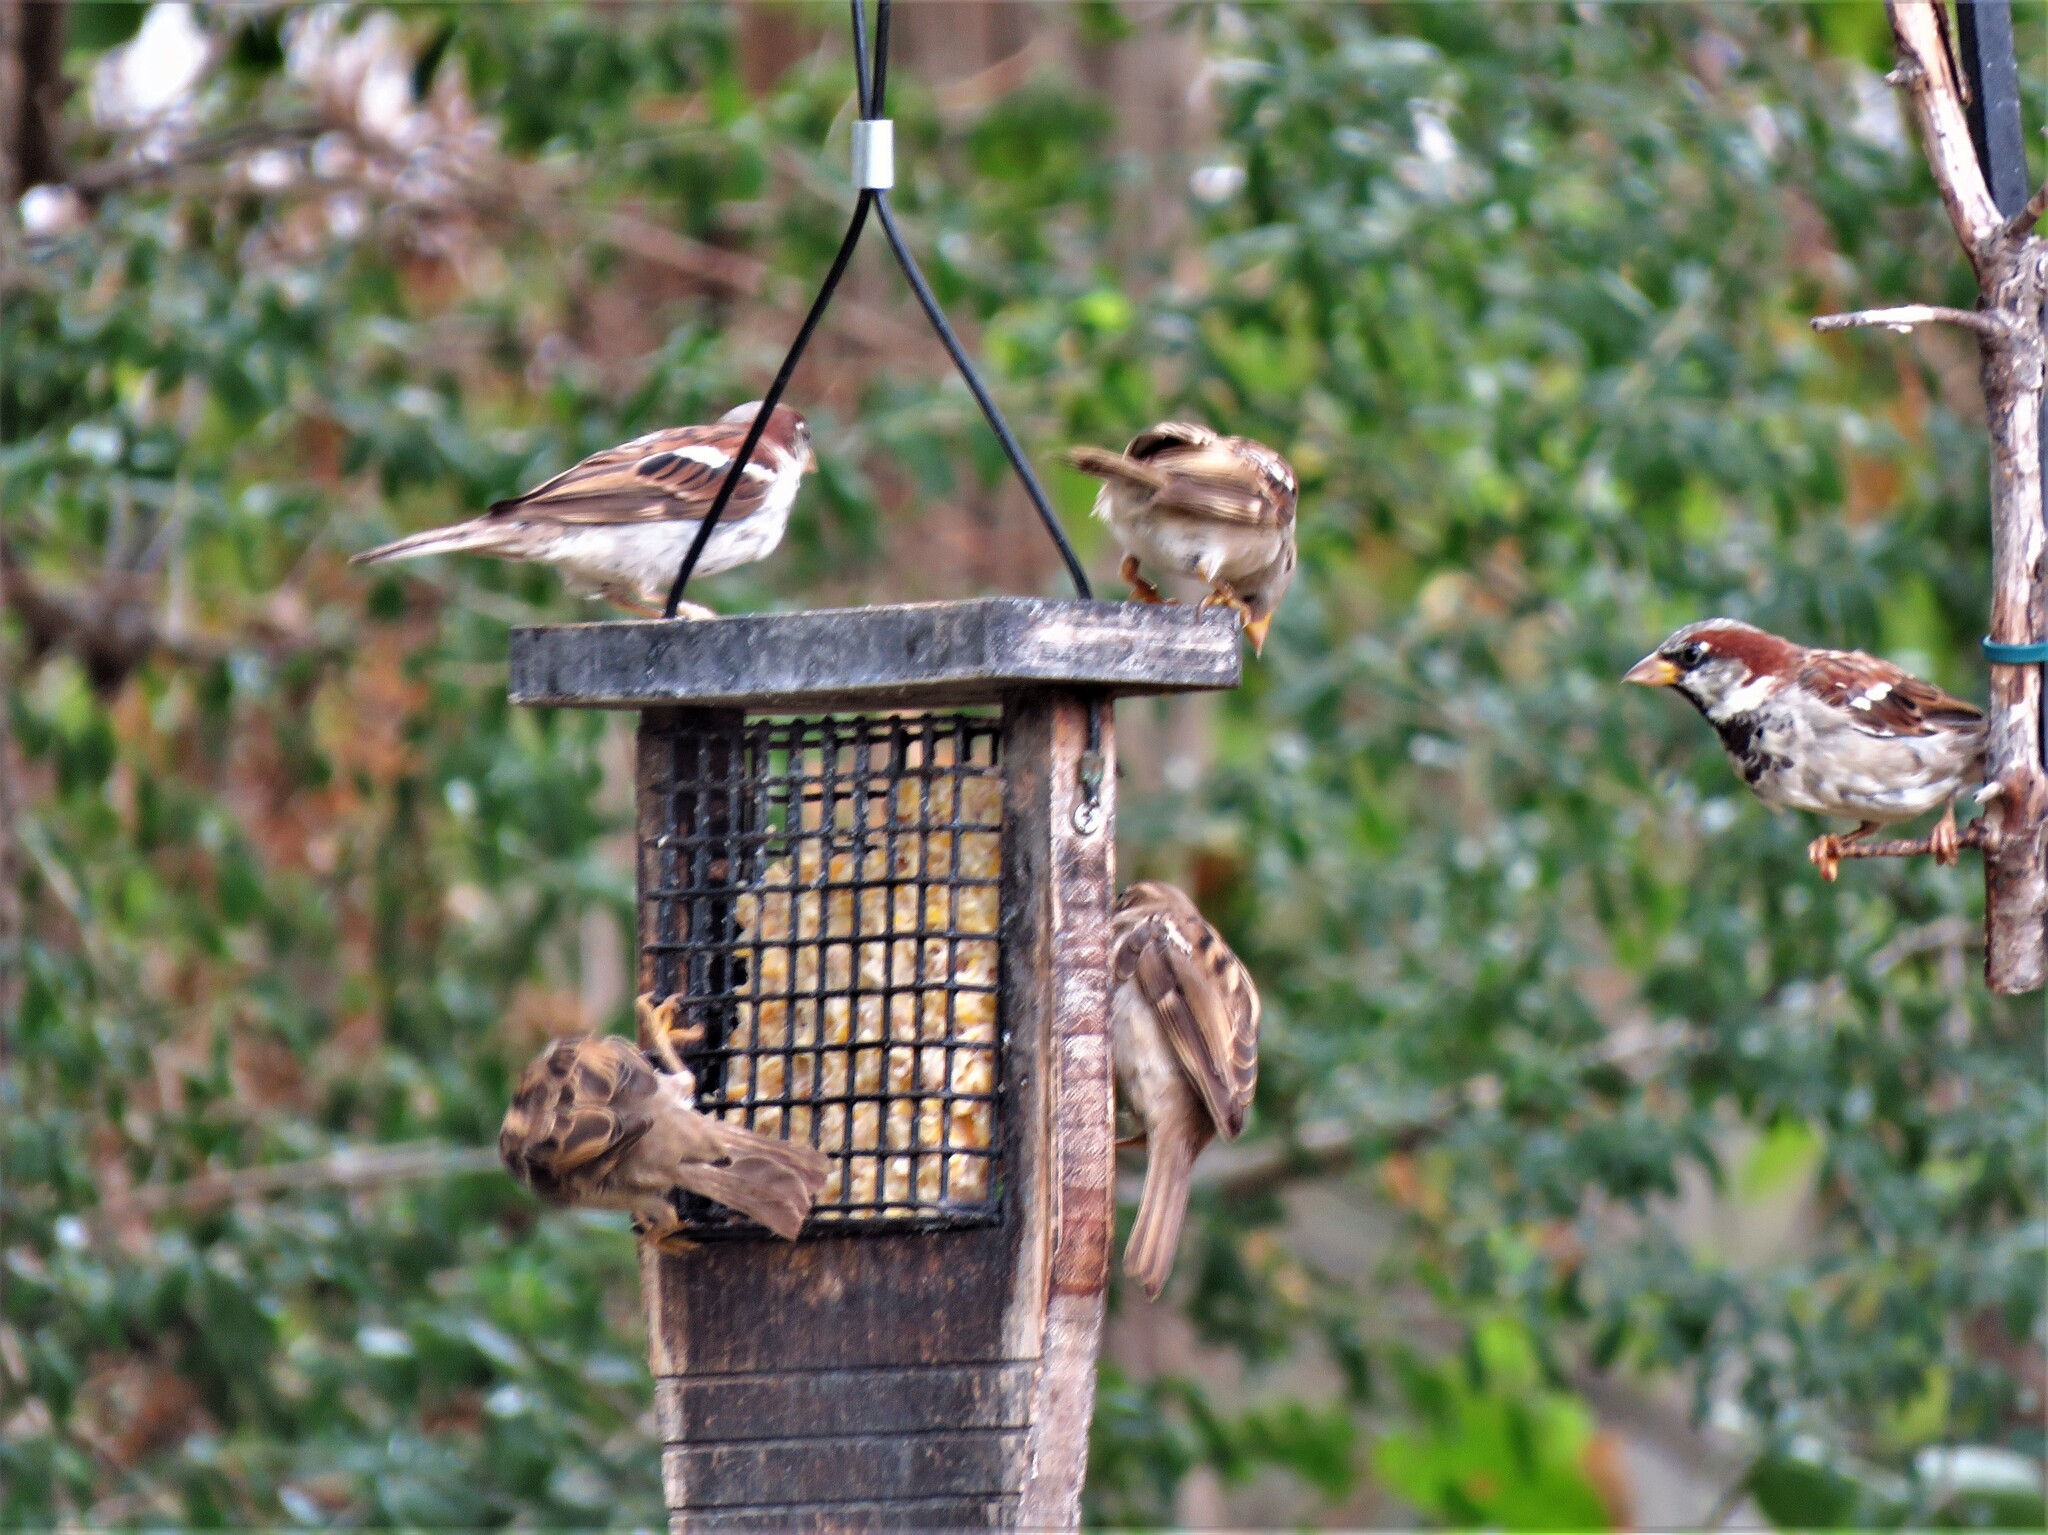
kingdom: Animalia
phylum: Chordata
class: Aves
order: Passeriformes
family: Passeridae
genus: Passer
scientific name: Passer domesticus
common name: House sparrow
